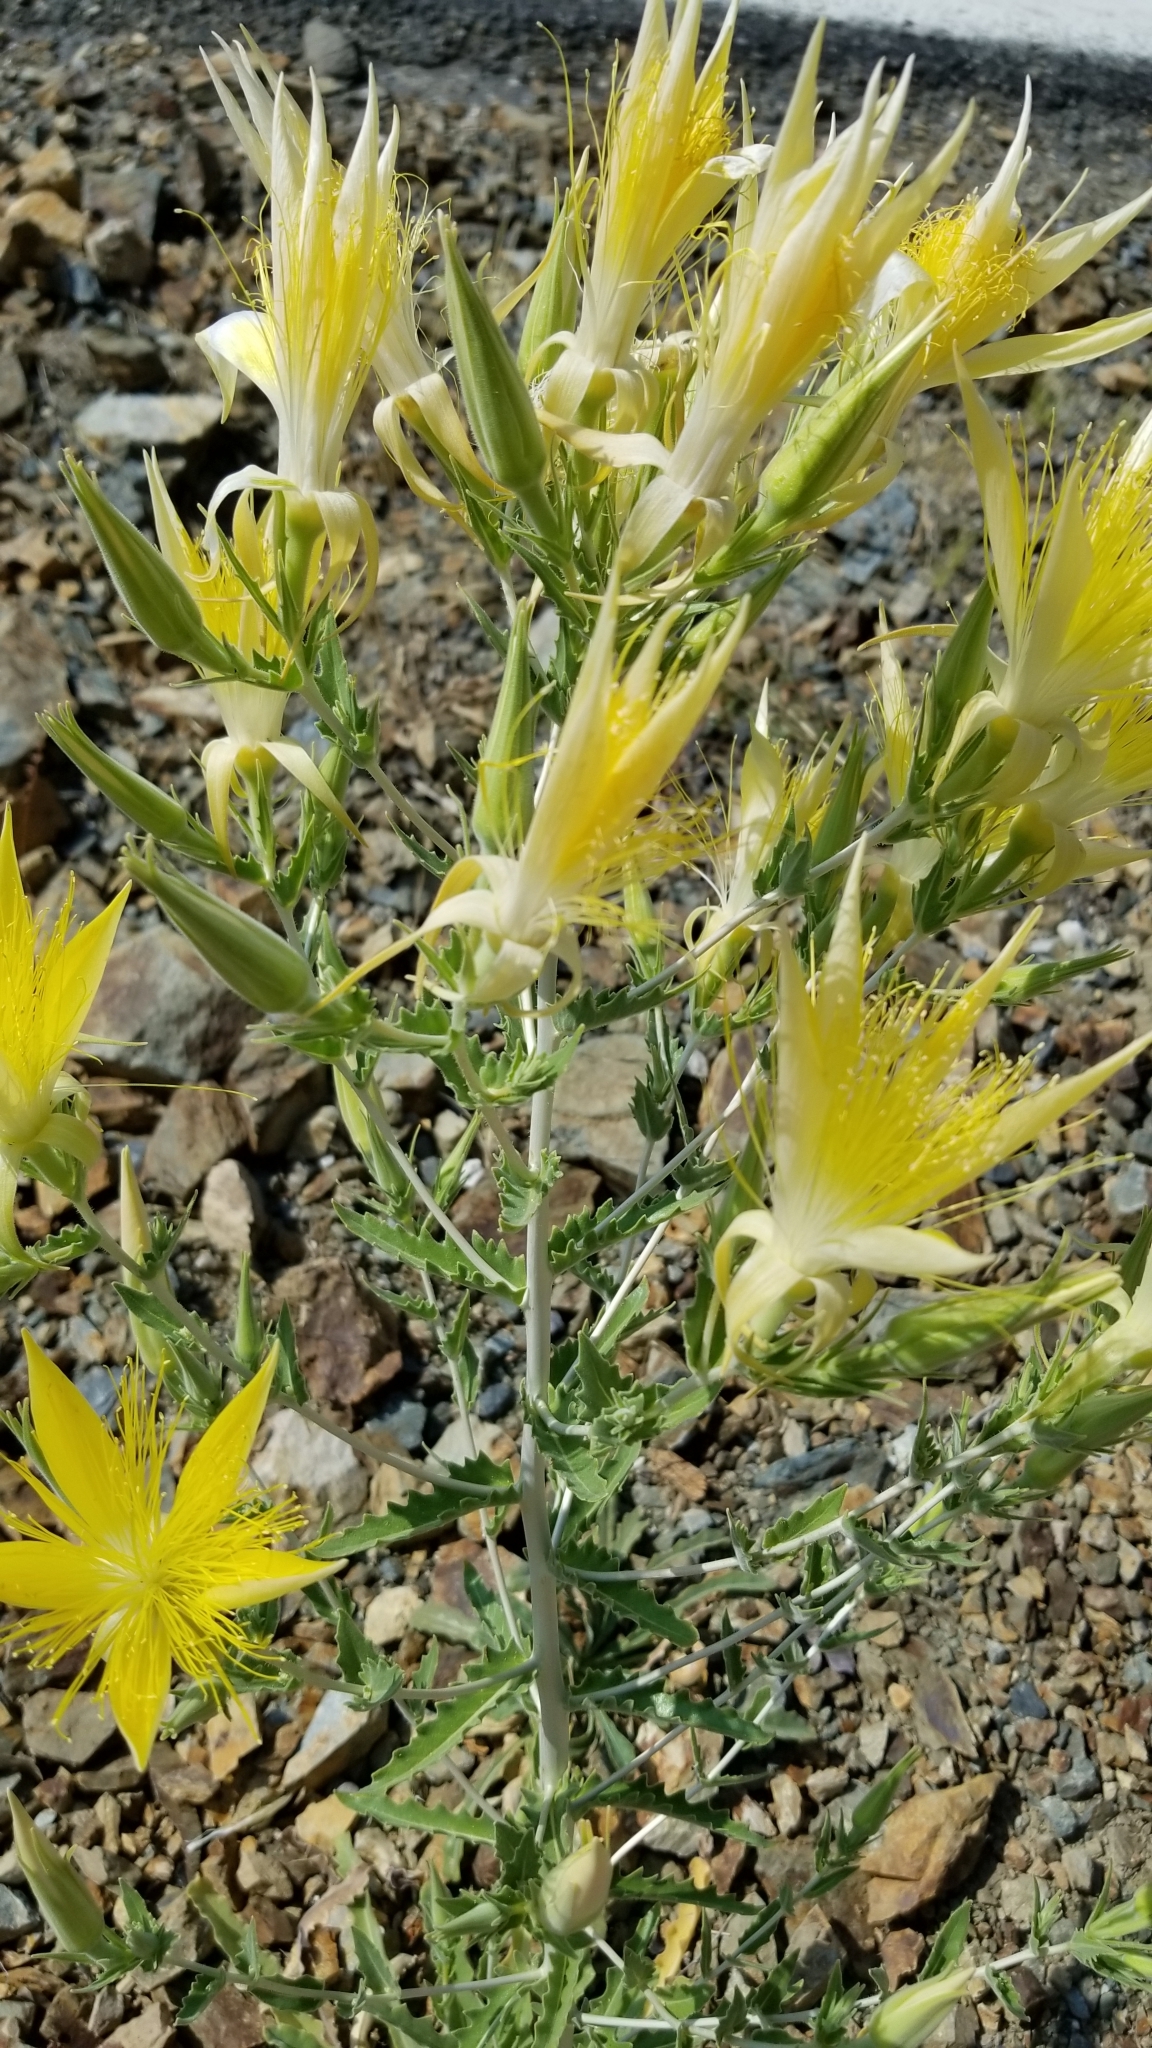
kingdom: Plantae
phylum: Tracheophyta
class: Magnoliopsida
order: Cornales
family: Loasaceae
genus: Mentzelia
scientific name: Mentzelia laevicaulis
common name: Smooth-stem blazingstar
